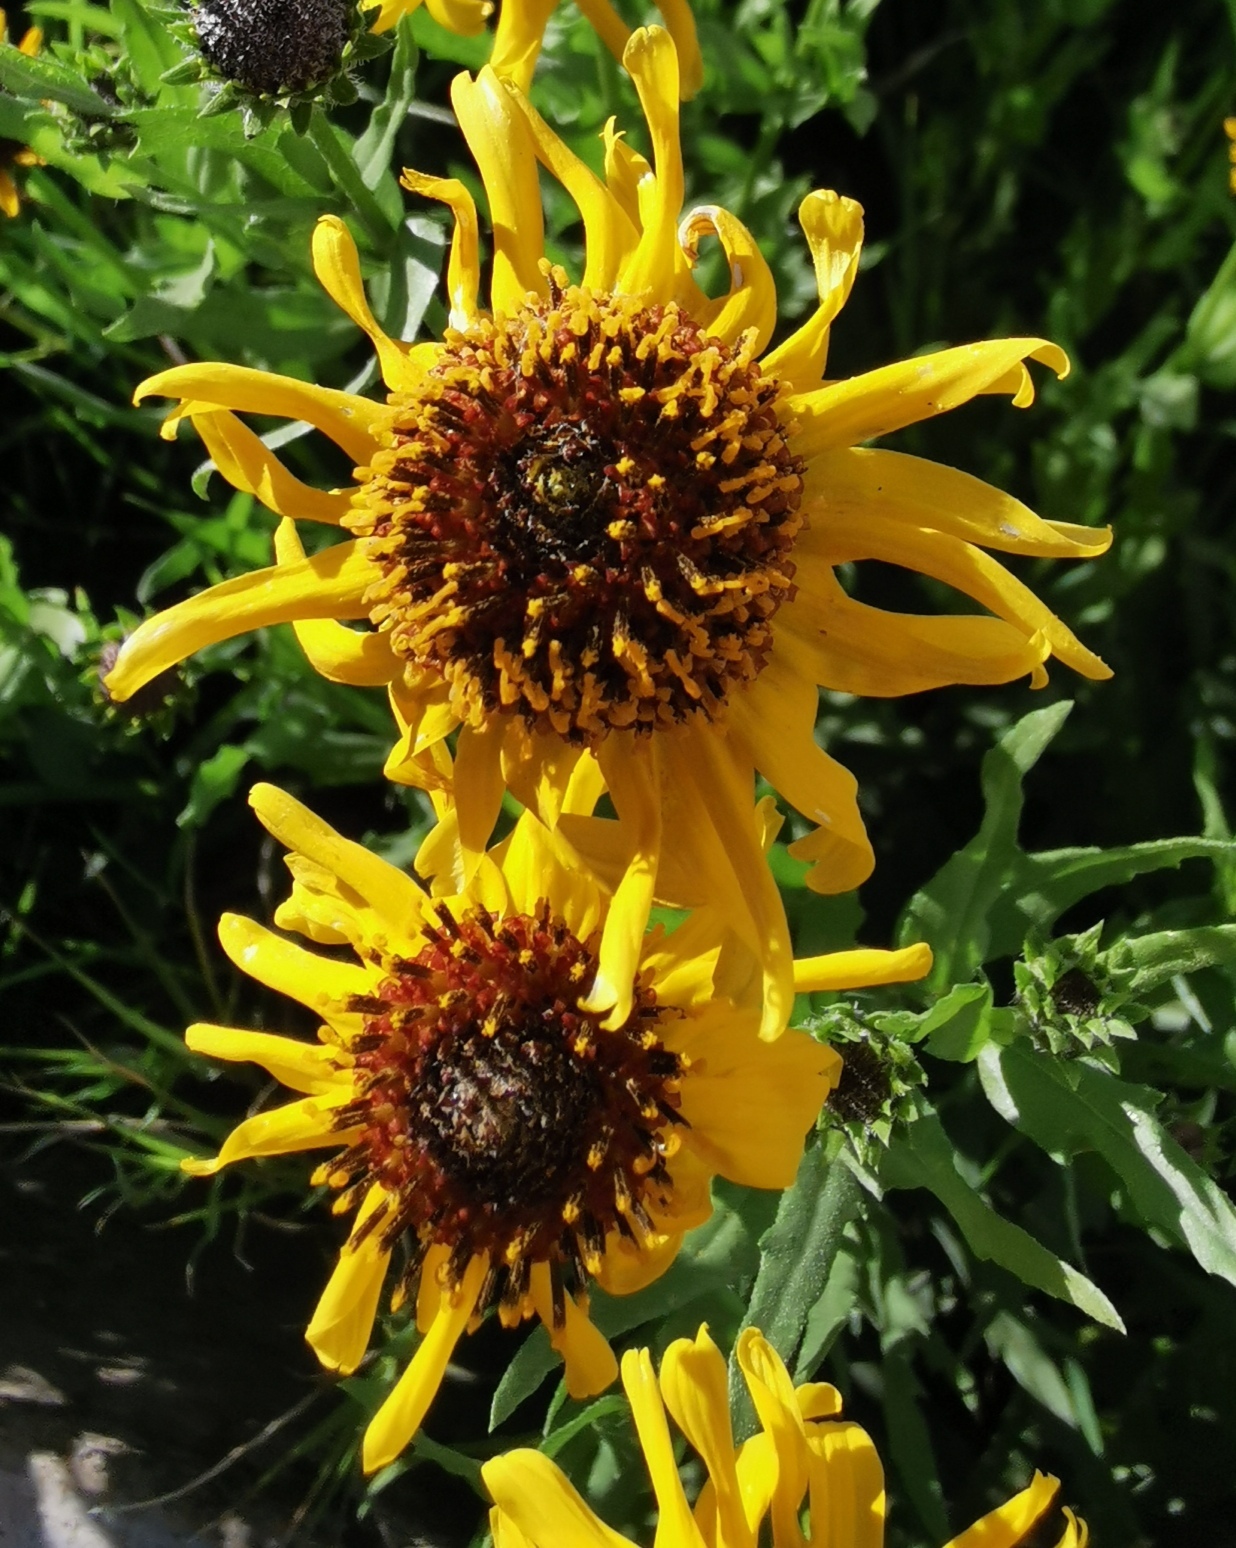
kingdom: Plantae
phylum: Tracheophyta
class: Magnoliopsida
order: Asterales
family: Asteraceae
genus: Helianthus
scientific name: Helianthus laciniatus
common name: Jagged-edge sunflower
